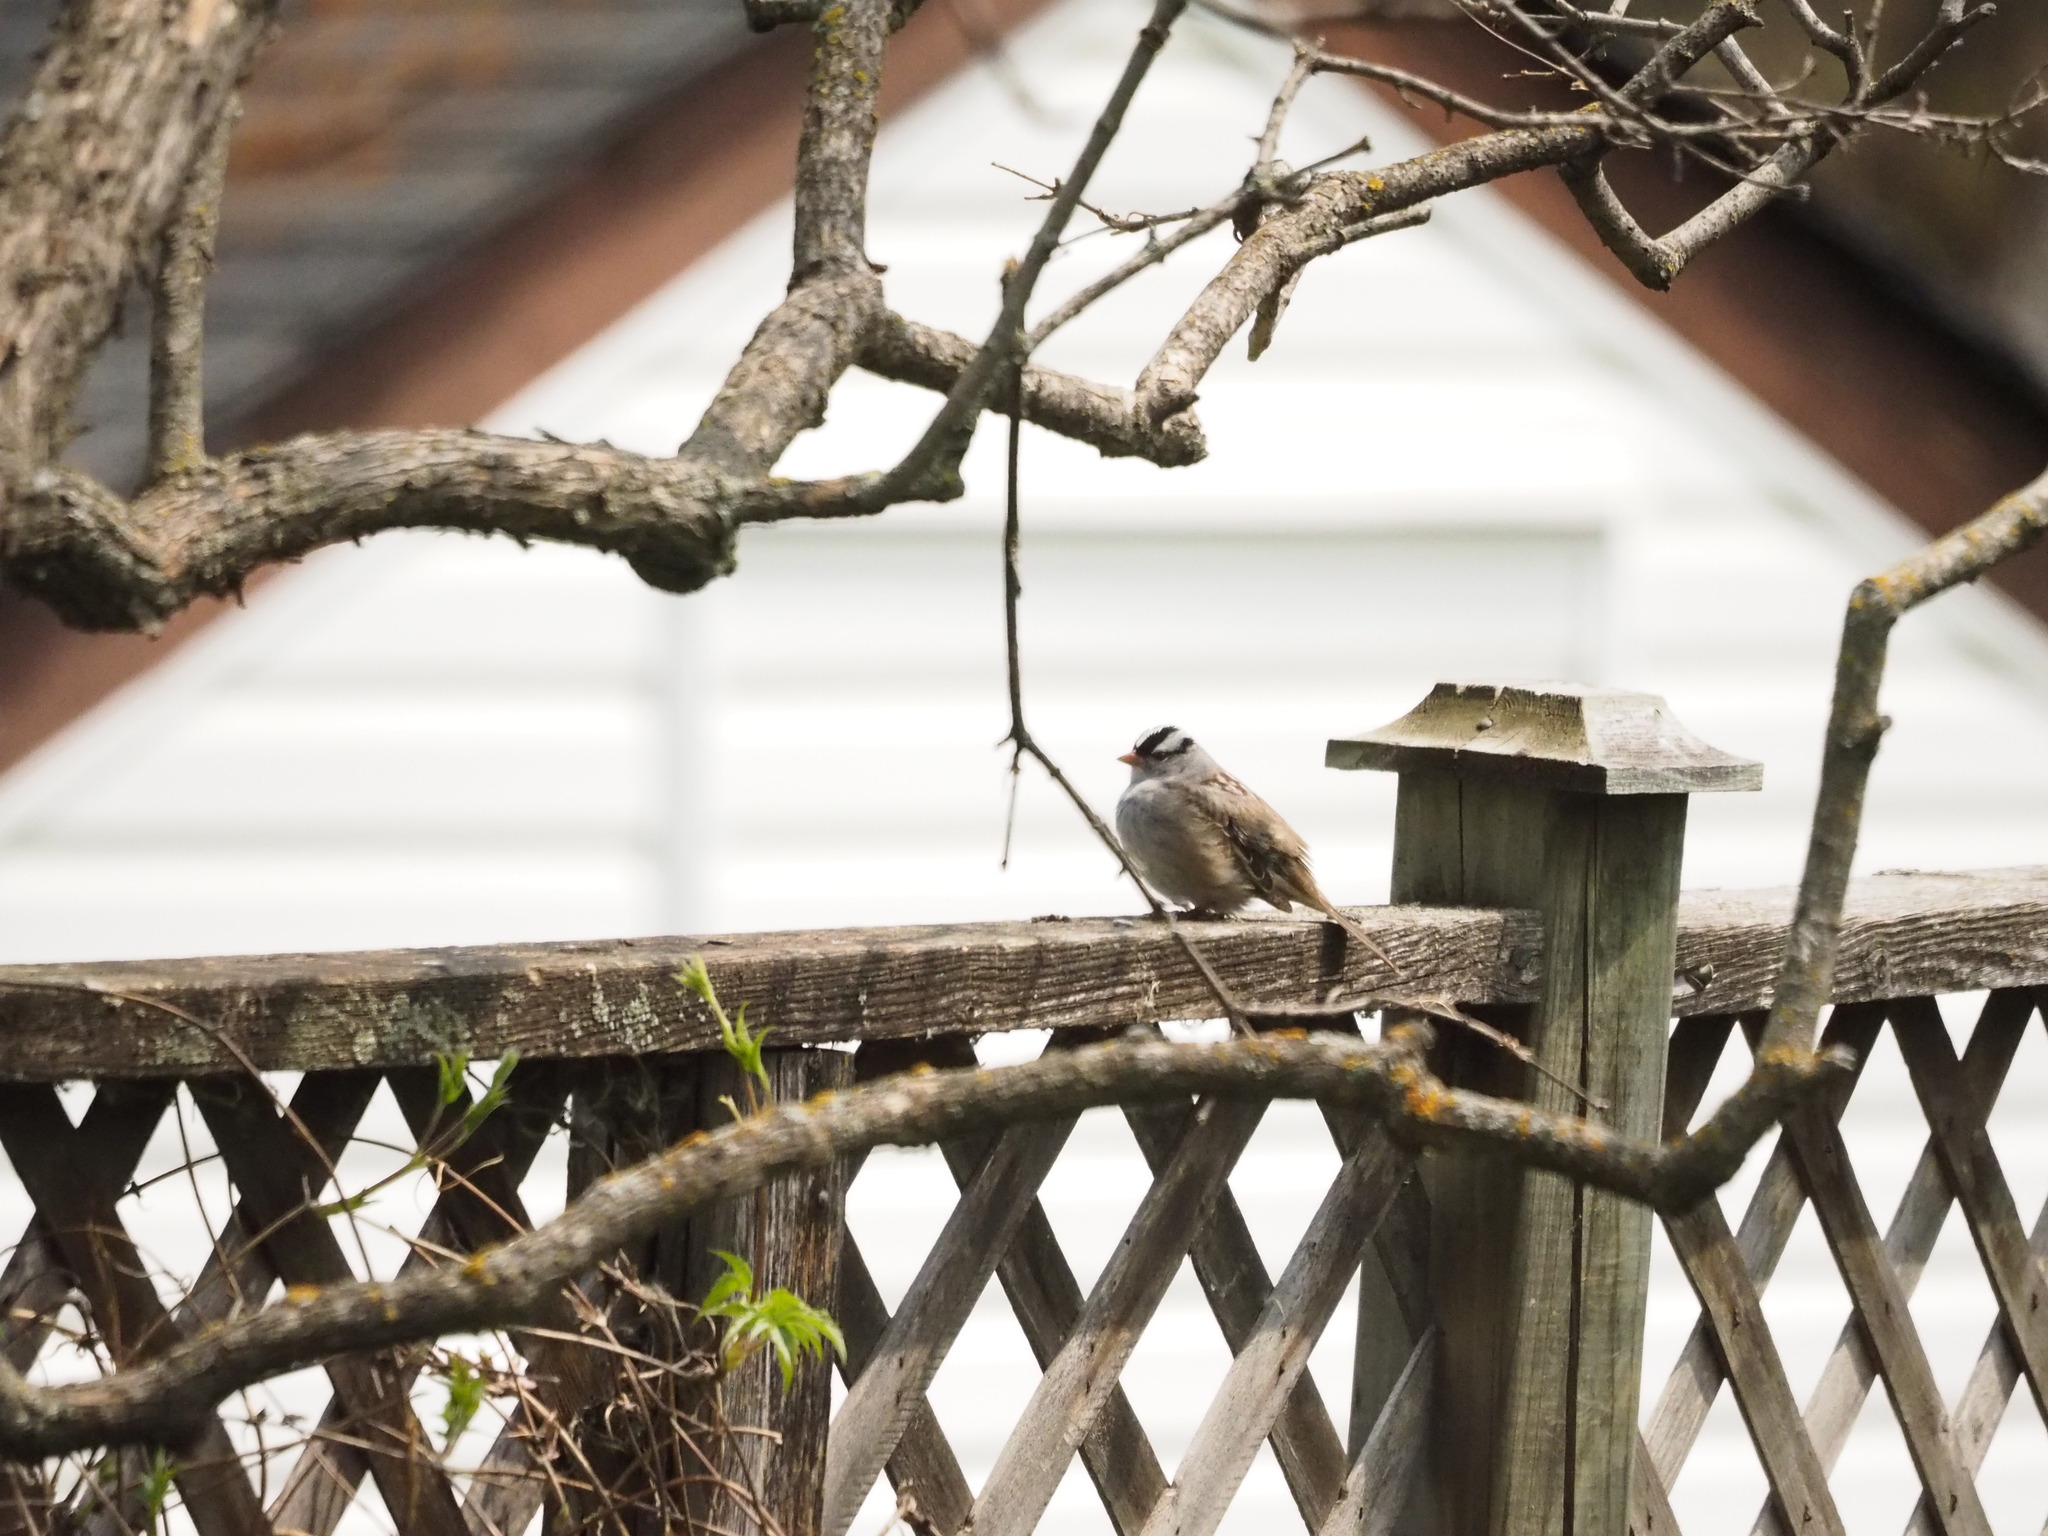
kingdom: Animalia
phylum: Chordata
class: Aves
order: Passeriformes
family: Passerellidae
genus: Zonotrichia
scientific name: Zonotrichia leucophrys
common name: White-crowned sparrow
